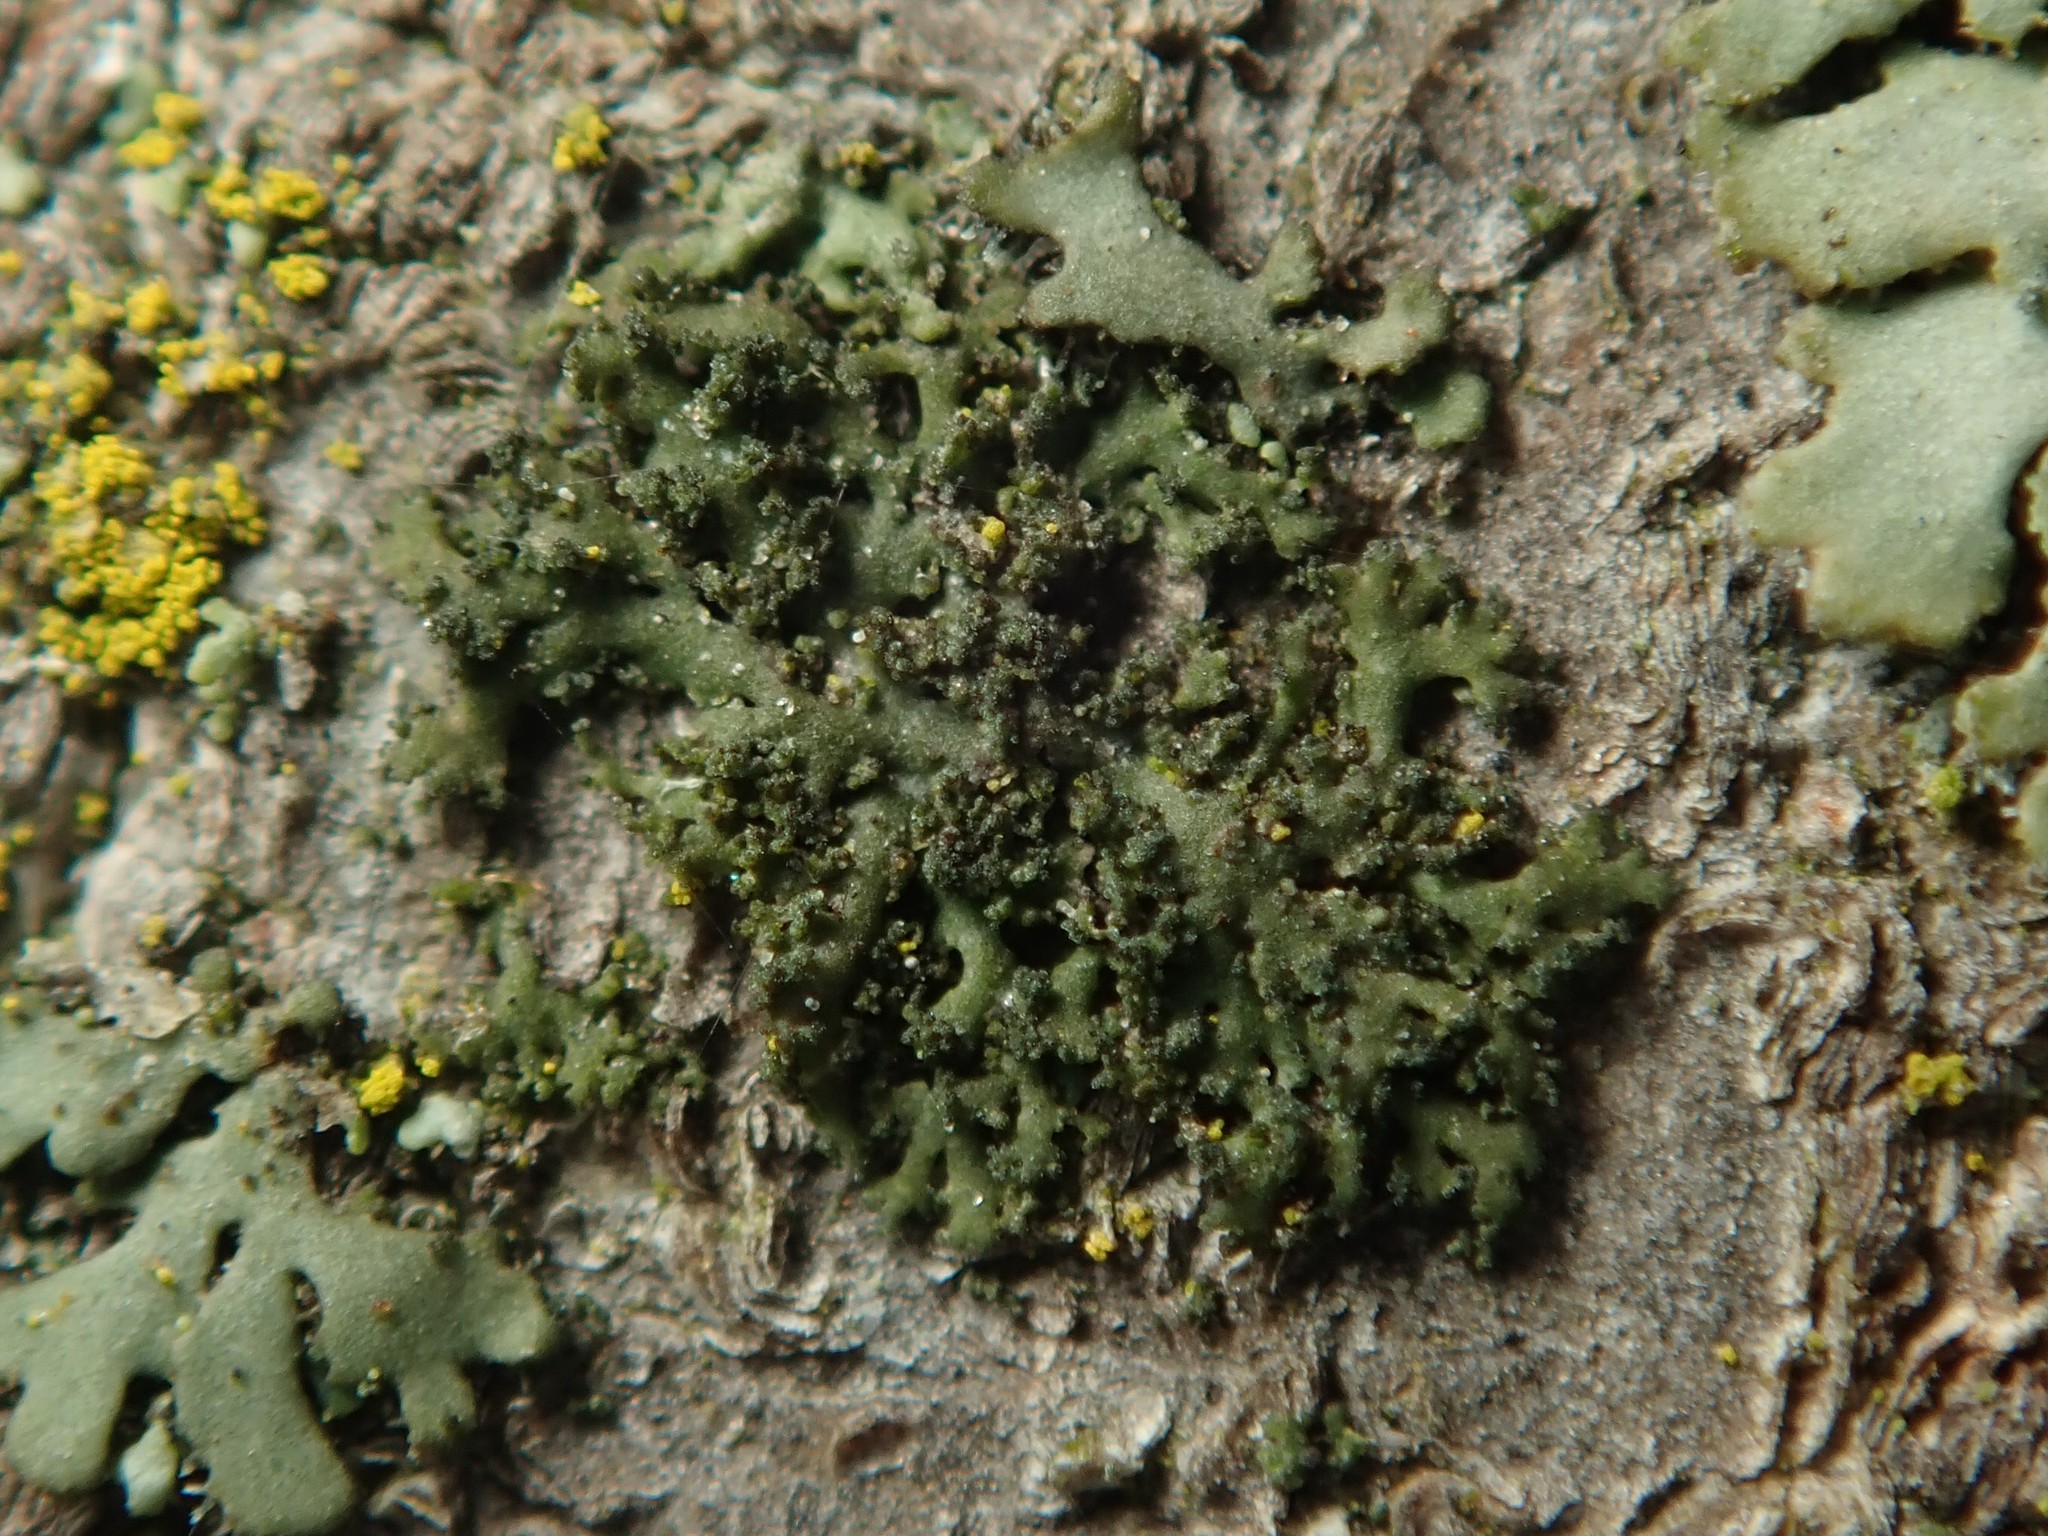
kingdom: Fungi
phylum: Ascomycota
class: Lecanoromycetes
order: Caliciales
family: Physciaceae
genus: Physciella
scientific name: Physciella nigricans
